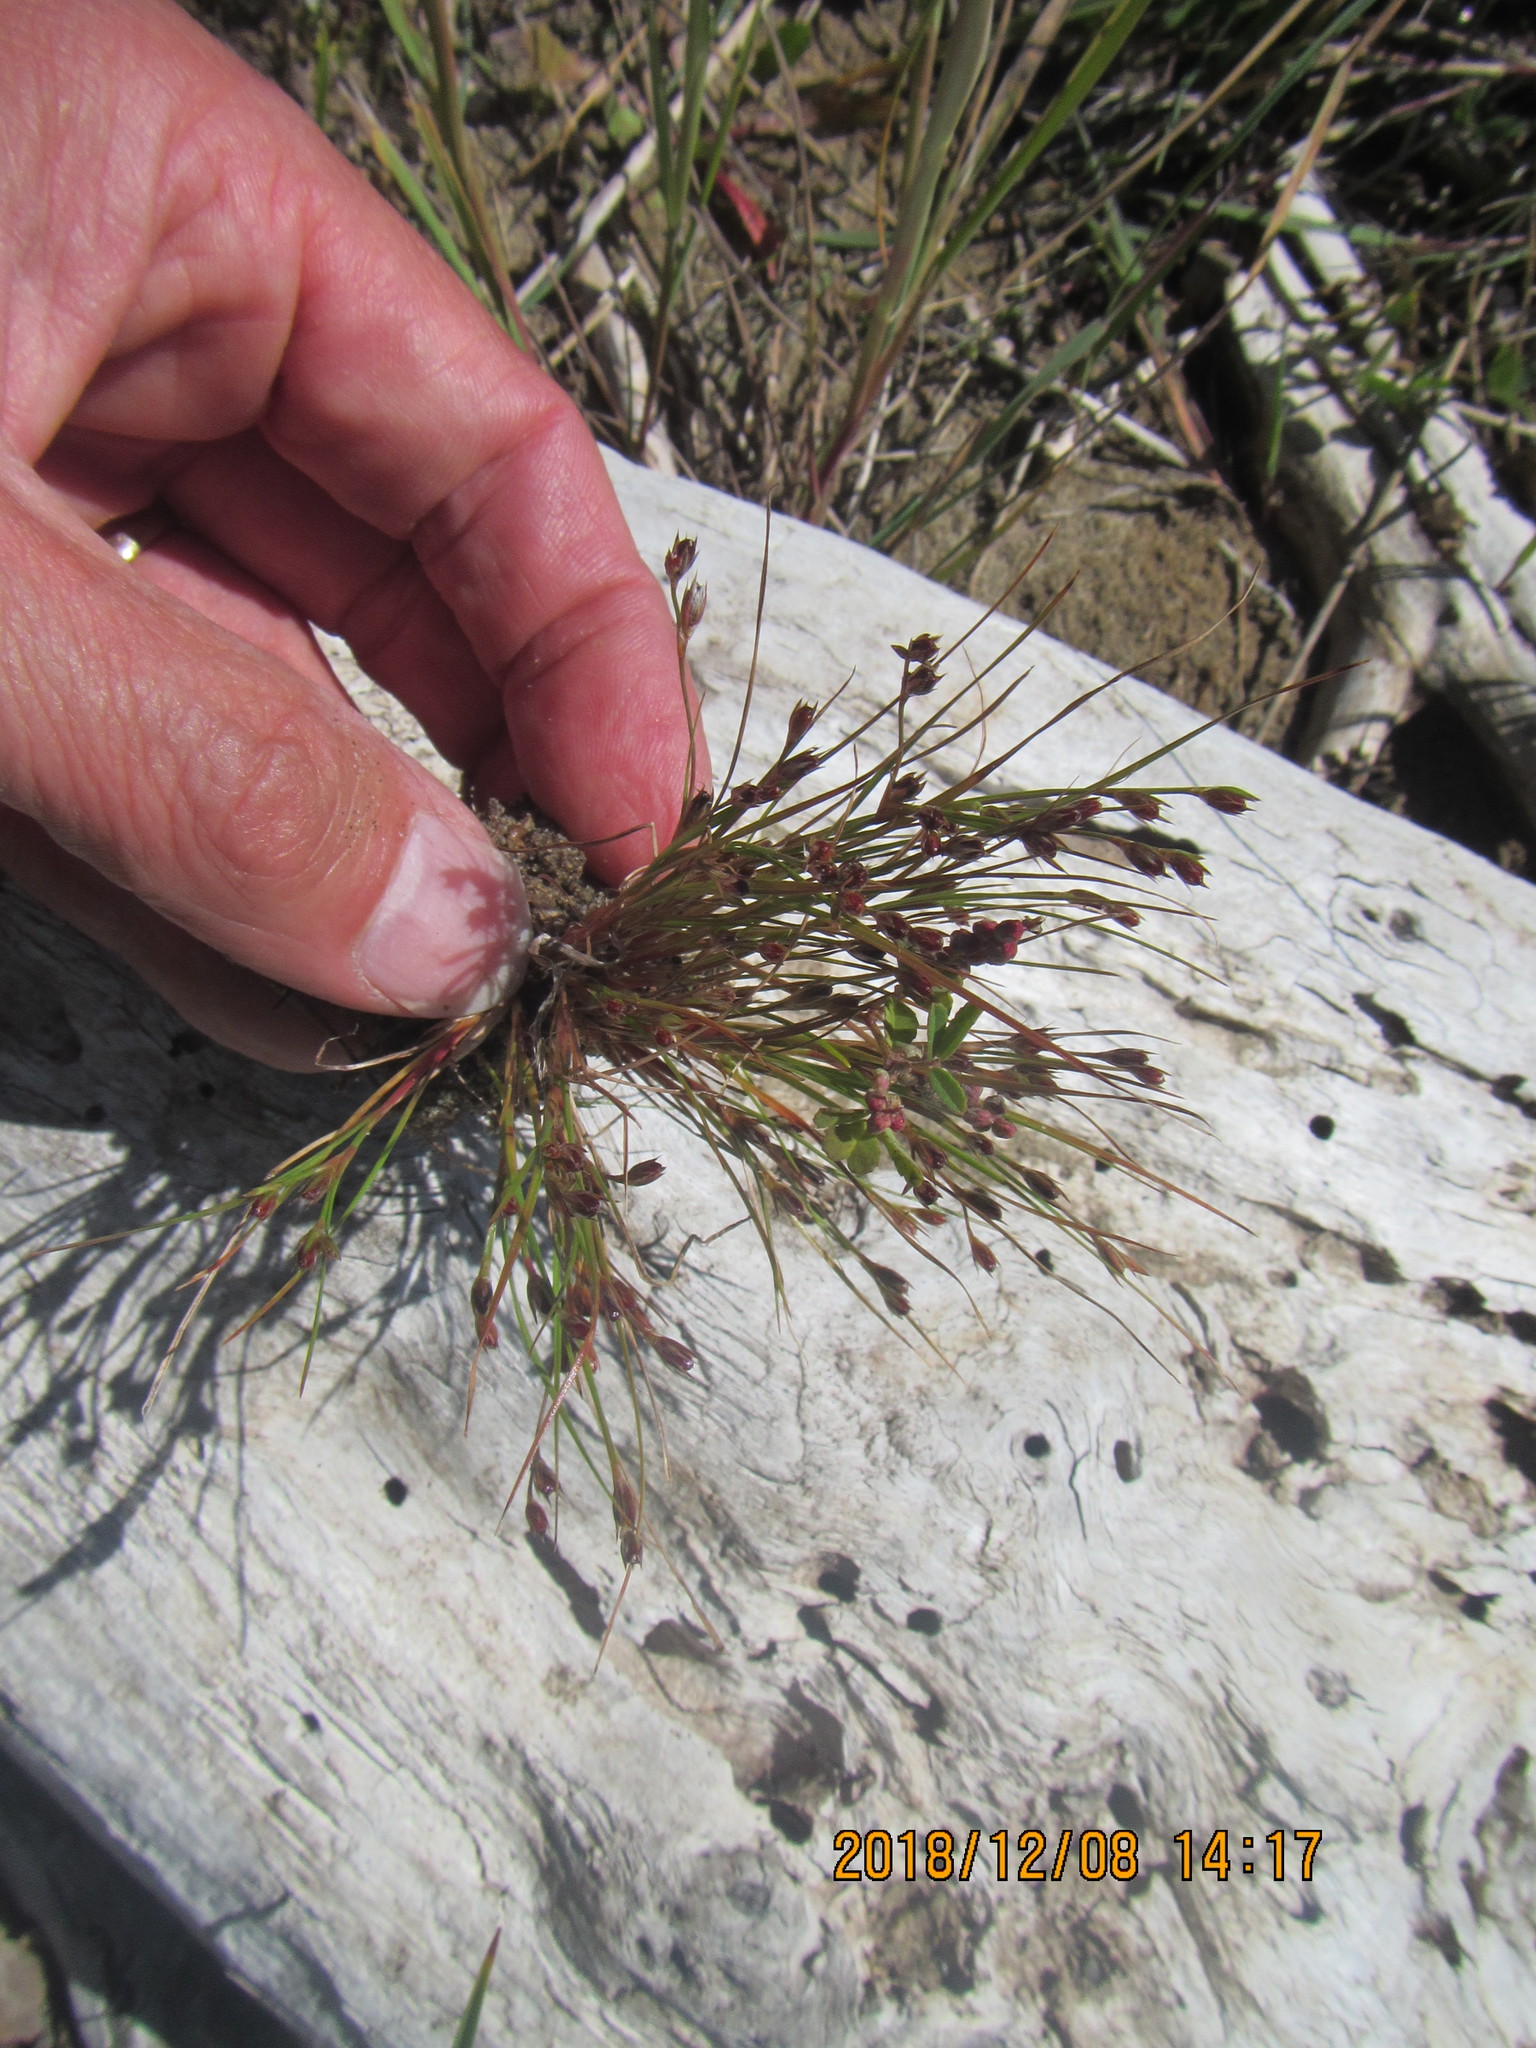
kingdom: Plantae
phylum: Tracheophyta
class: Liliopsida
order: Poales
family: Juncaceae
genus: Juncus
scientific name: Juncus bufonius
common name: Toad rush
